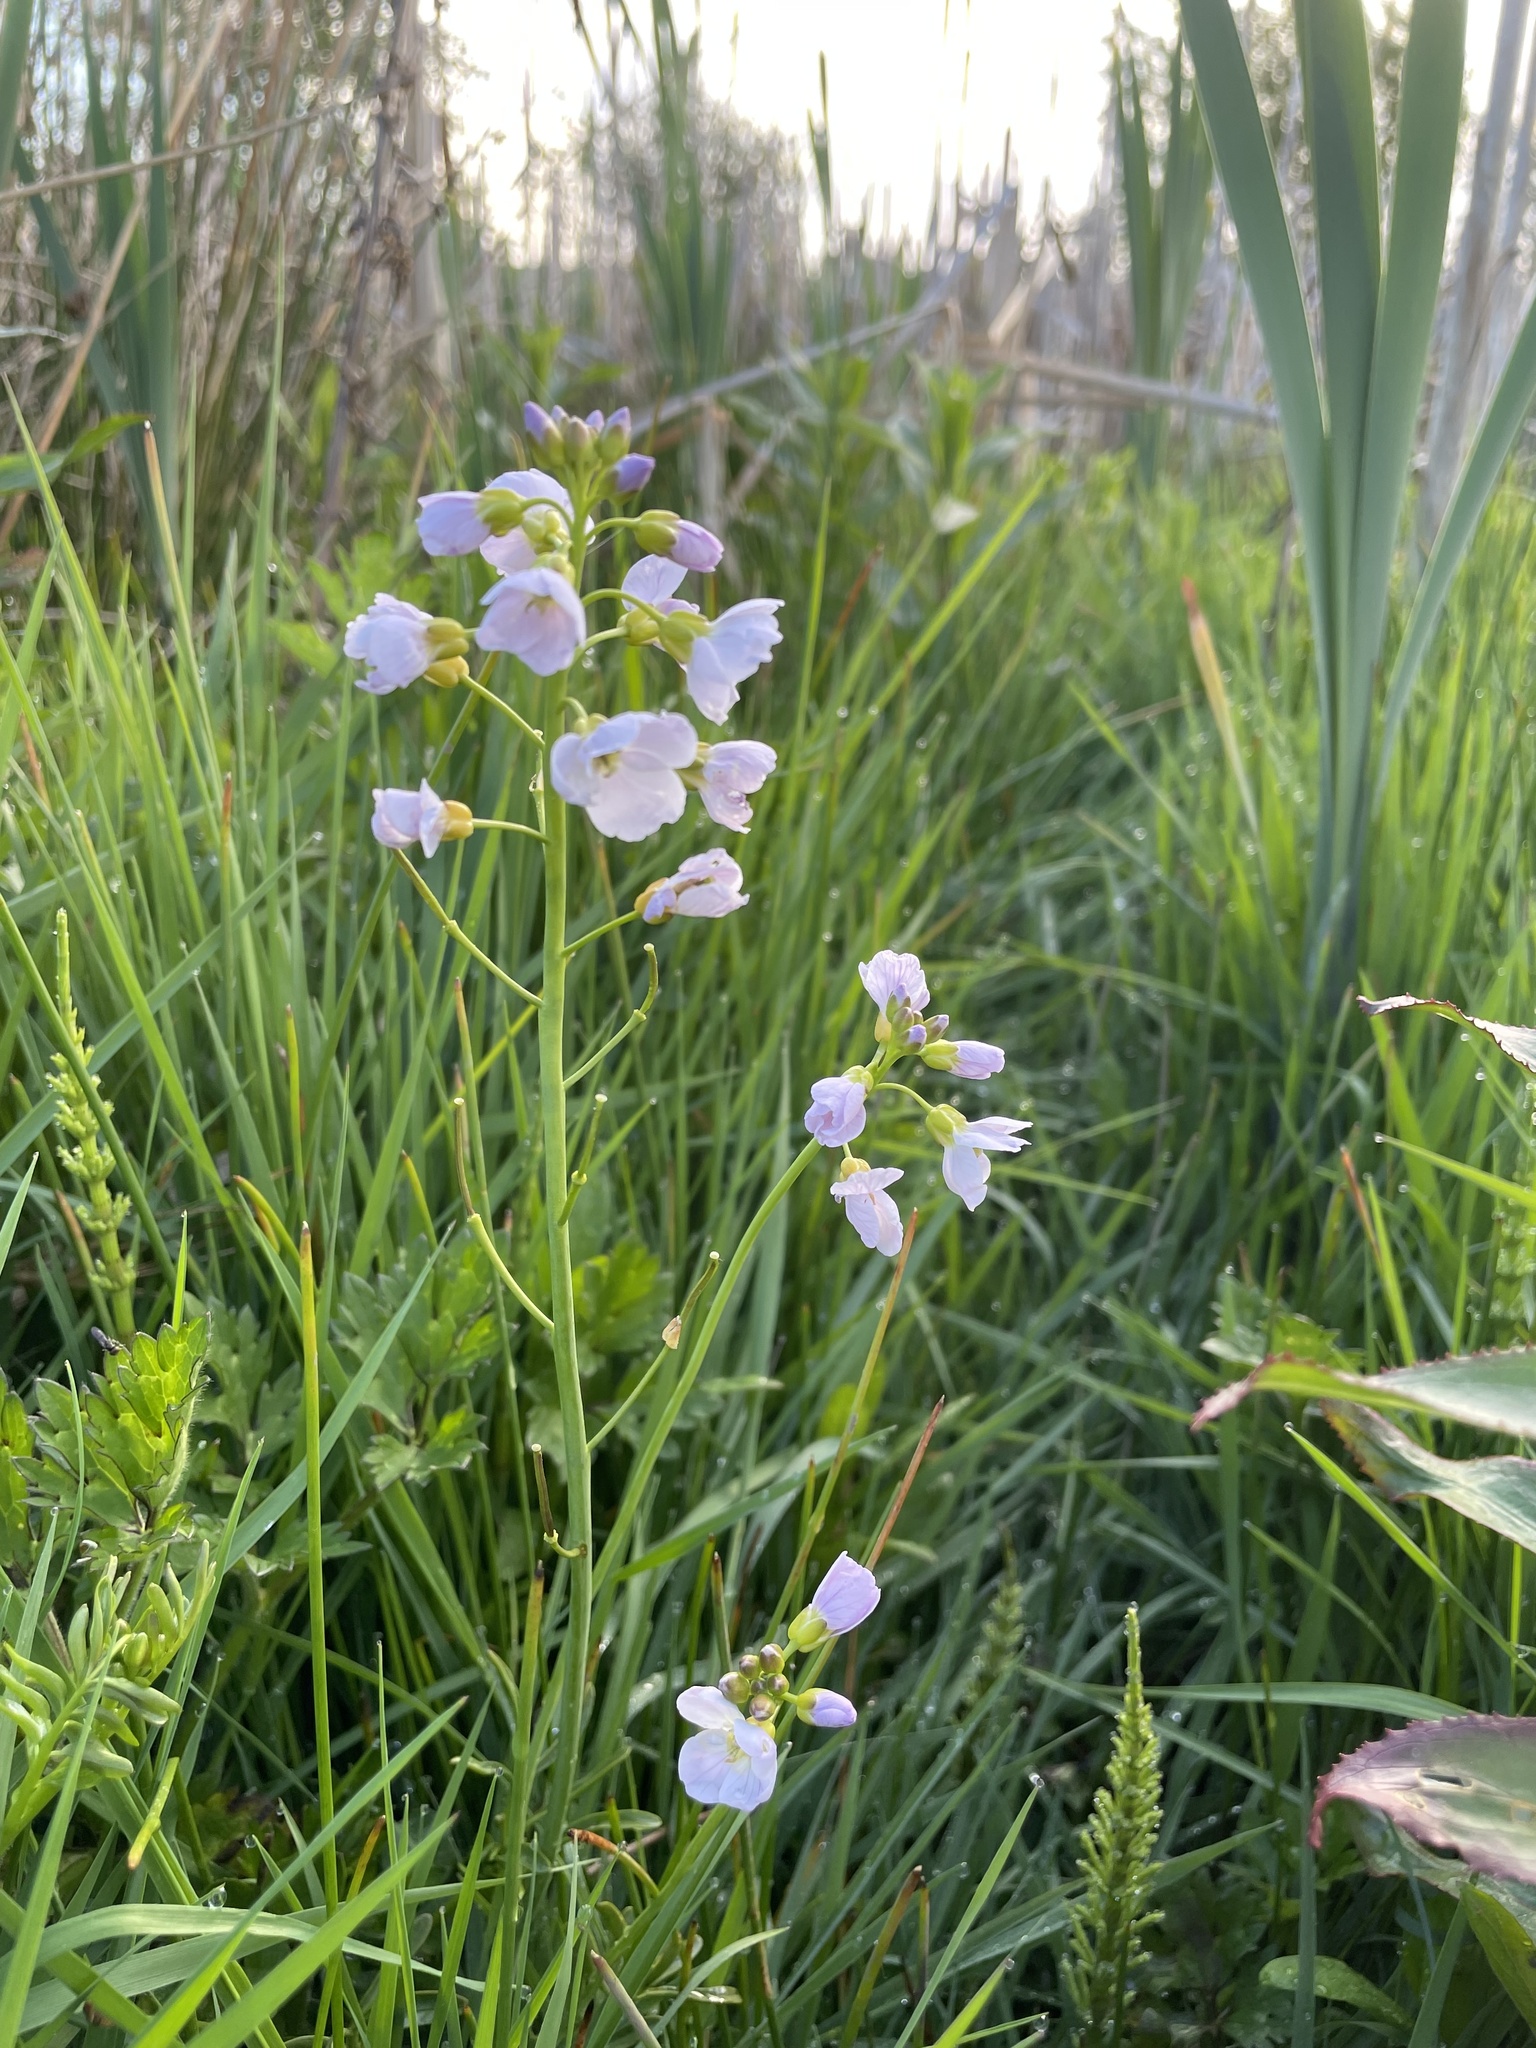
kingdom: Plantae
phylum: Tracheophyta
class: Magnoliopsida
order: Brassicales
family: Brassicaceae
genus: Cardamine
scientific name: Cardamine pratensis
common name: Cuckoo flower
